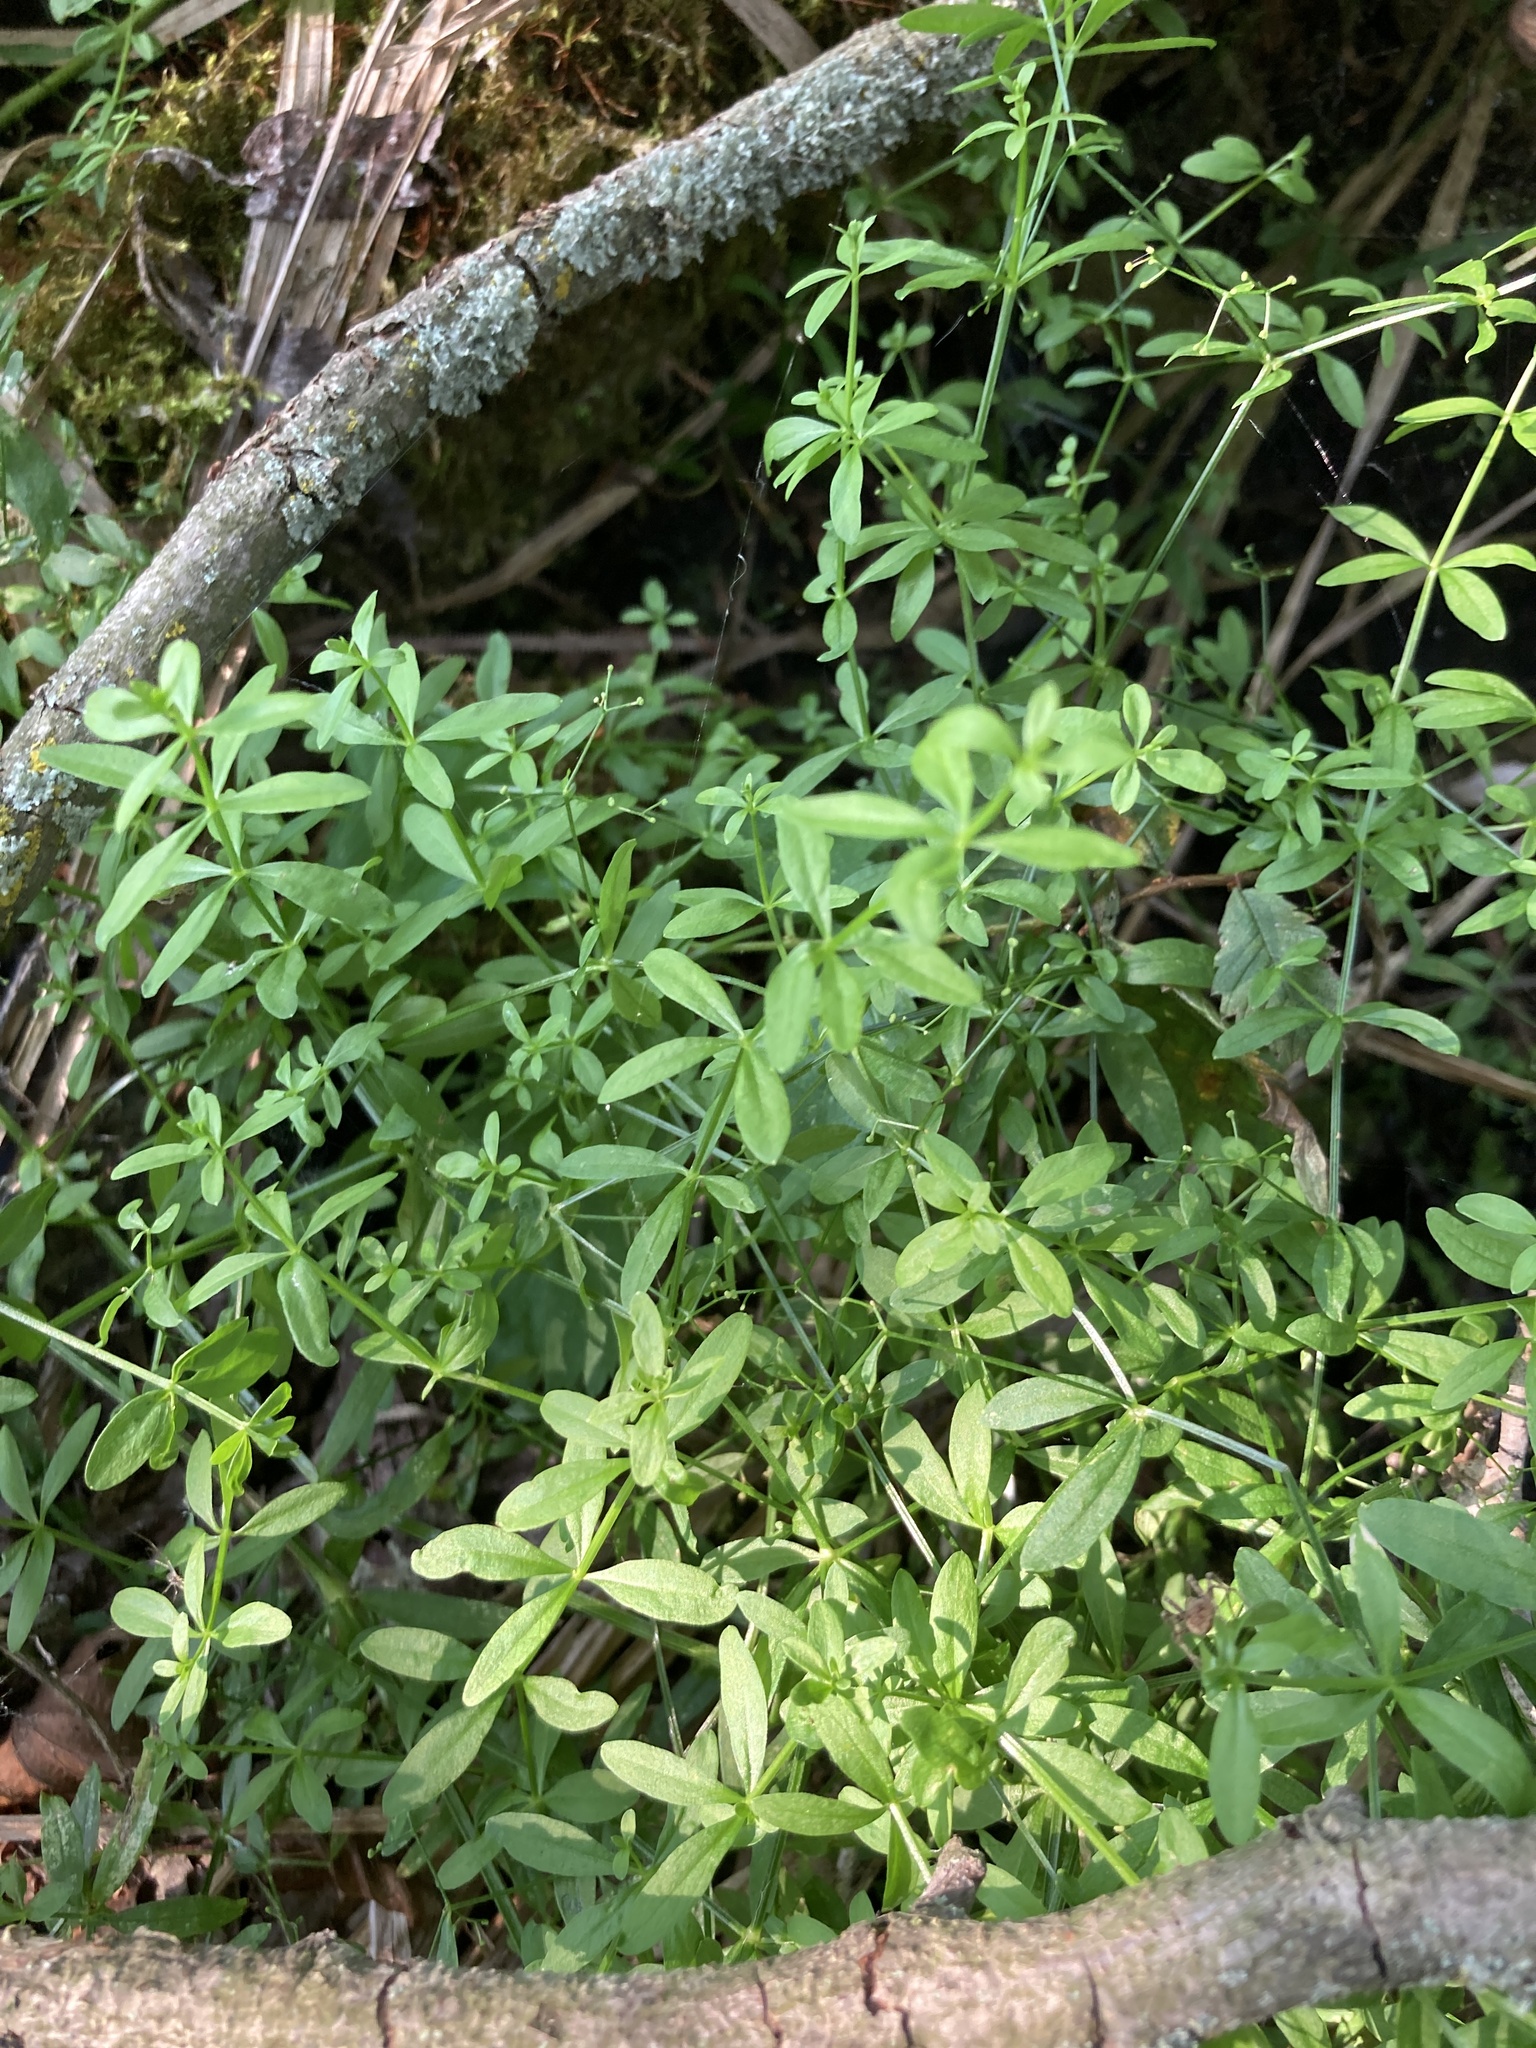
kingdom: Plantae
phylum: Tracheophyta
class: Magnoliopsida
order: Gentianales
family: Rubiaceae
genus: Galium
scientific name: Galium palustre
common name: Common marsh-bedstraw
